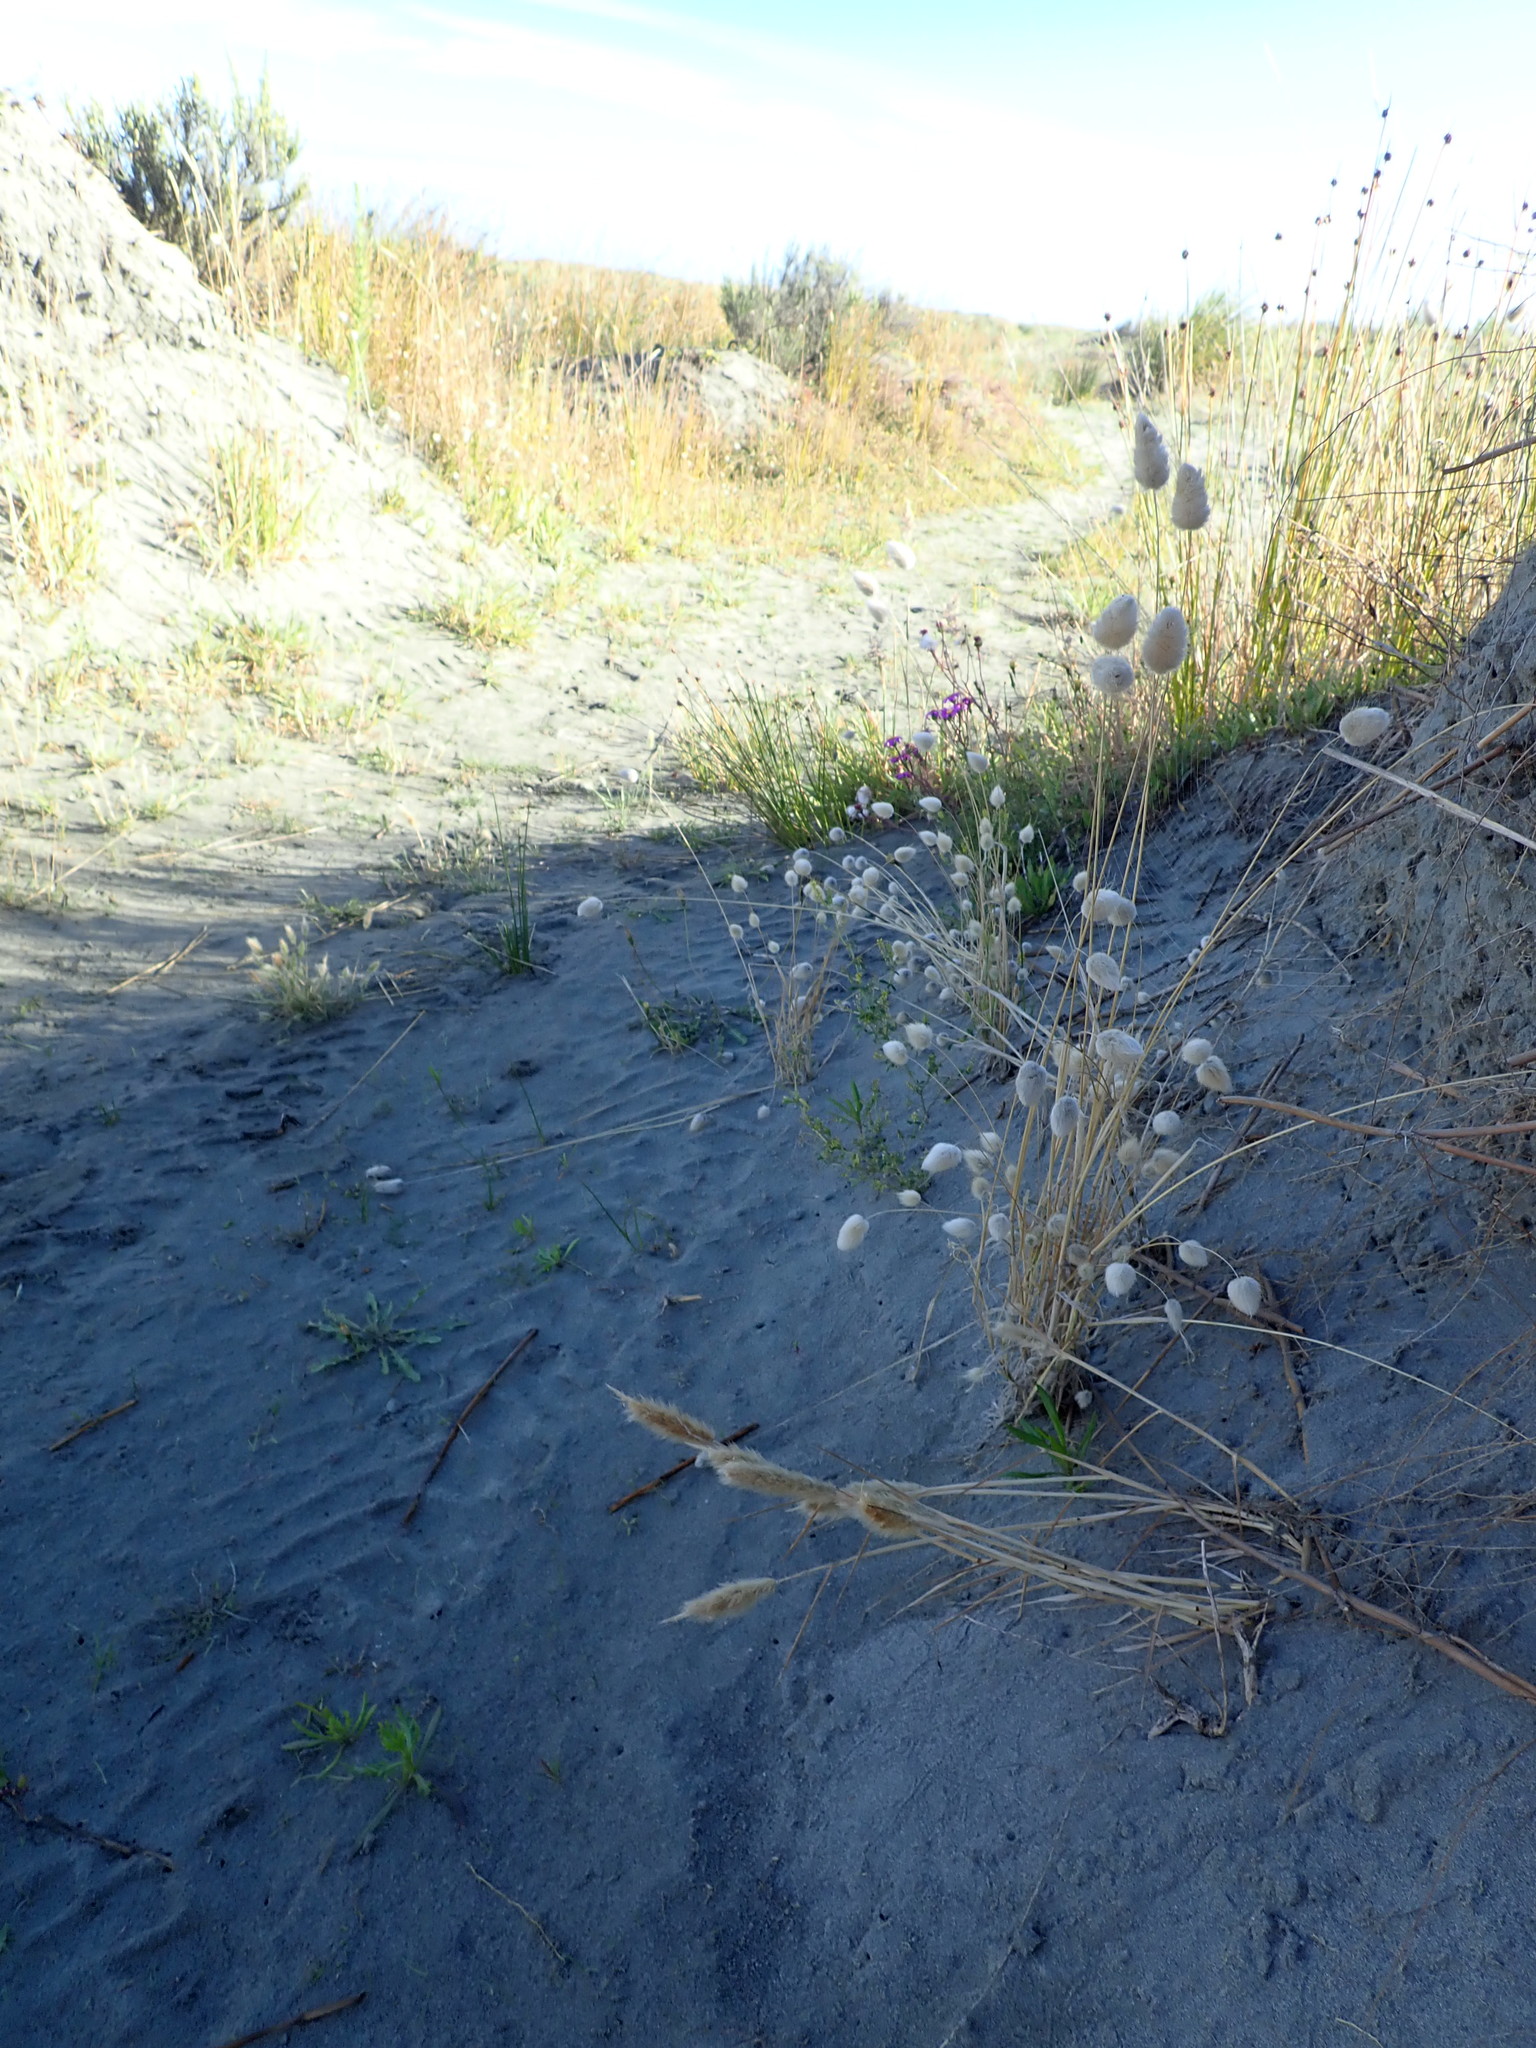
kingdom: Plantae
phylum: Tracheophyta
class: Liliopsida
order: Poales
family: Poaceae
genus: Lagurus
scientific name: Lagurus ovatus
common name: Hare's-tail
